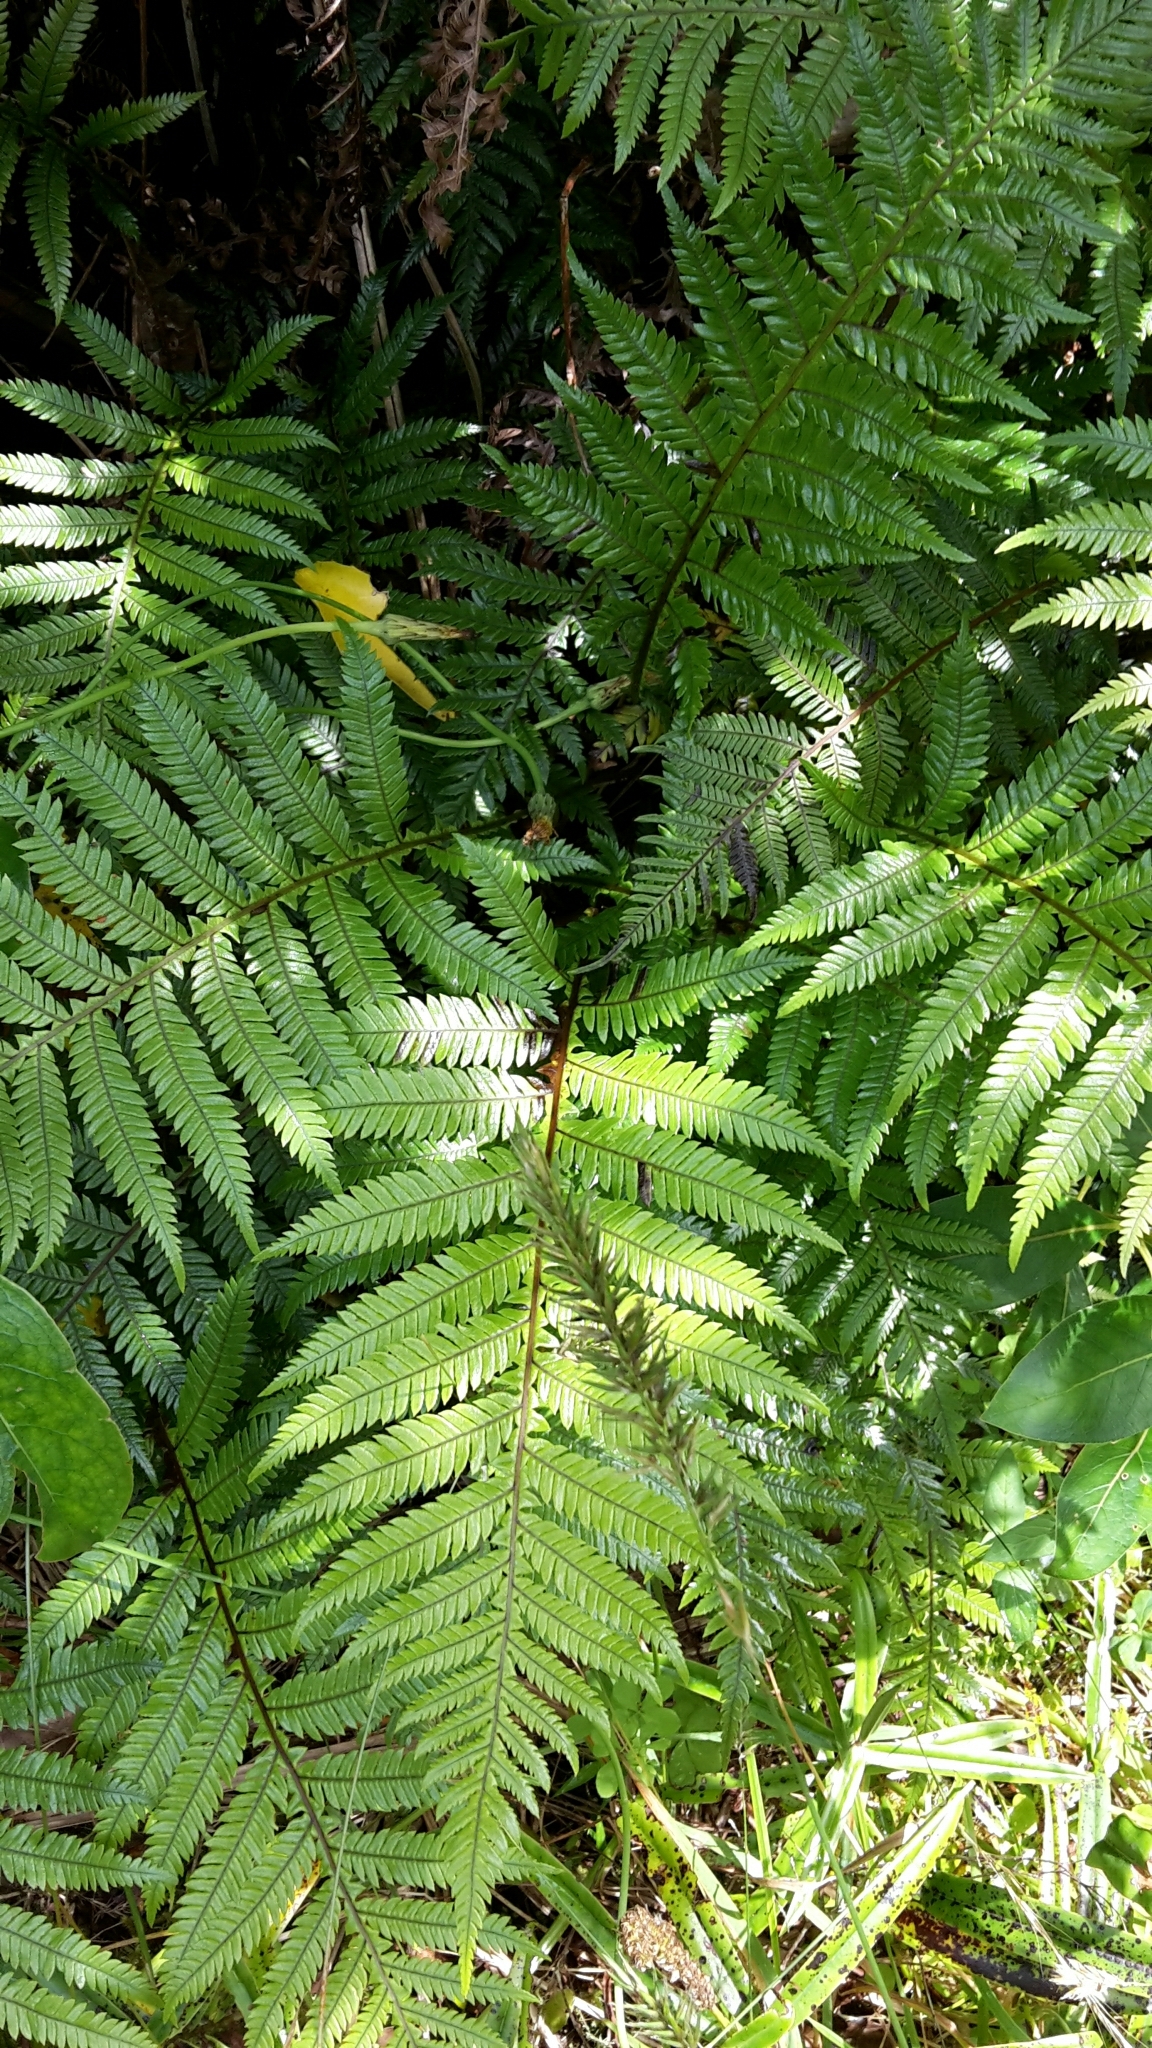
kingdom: Plantae
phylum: Tracheophyta
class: Polypodiopsida
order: Polypodiales
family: Blechnaceae
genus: Diploblechnum
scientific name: Diploblechnum fraseri
